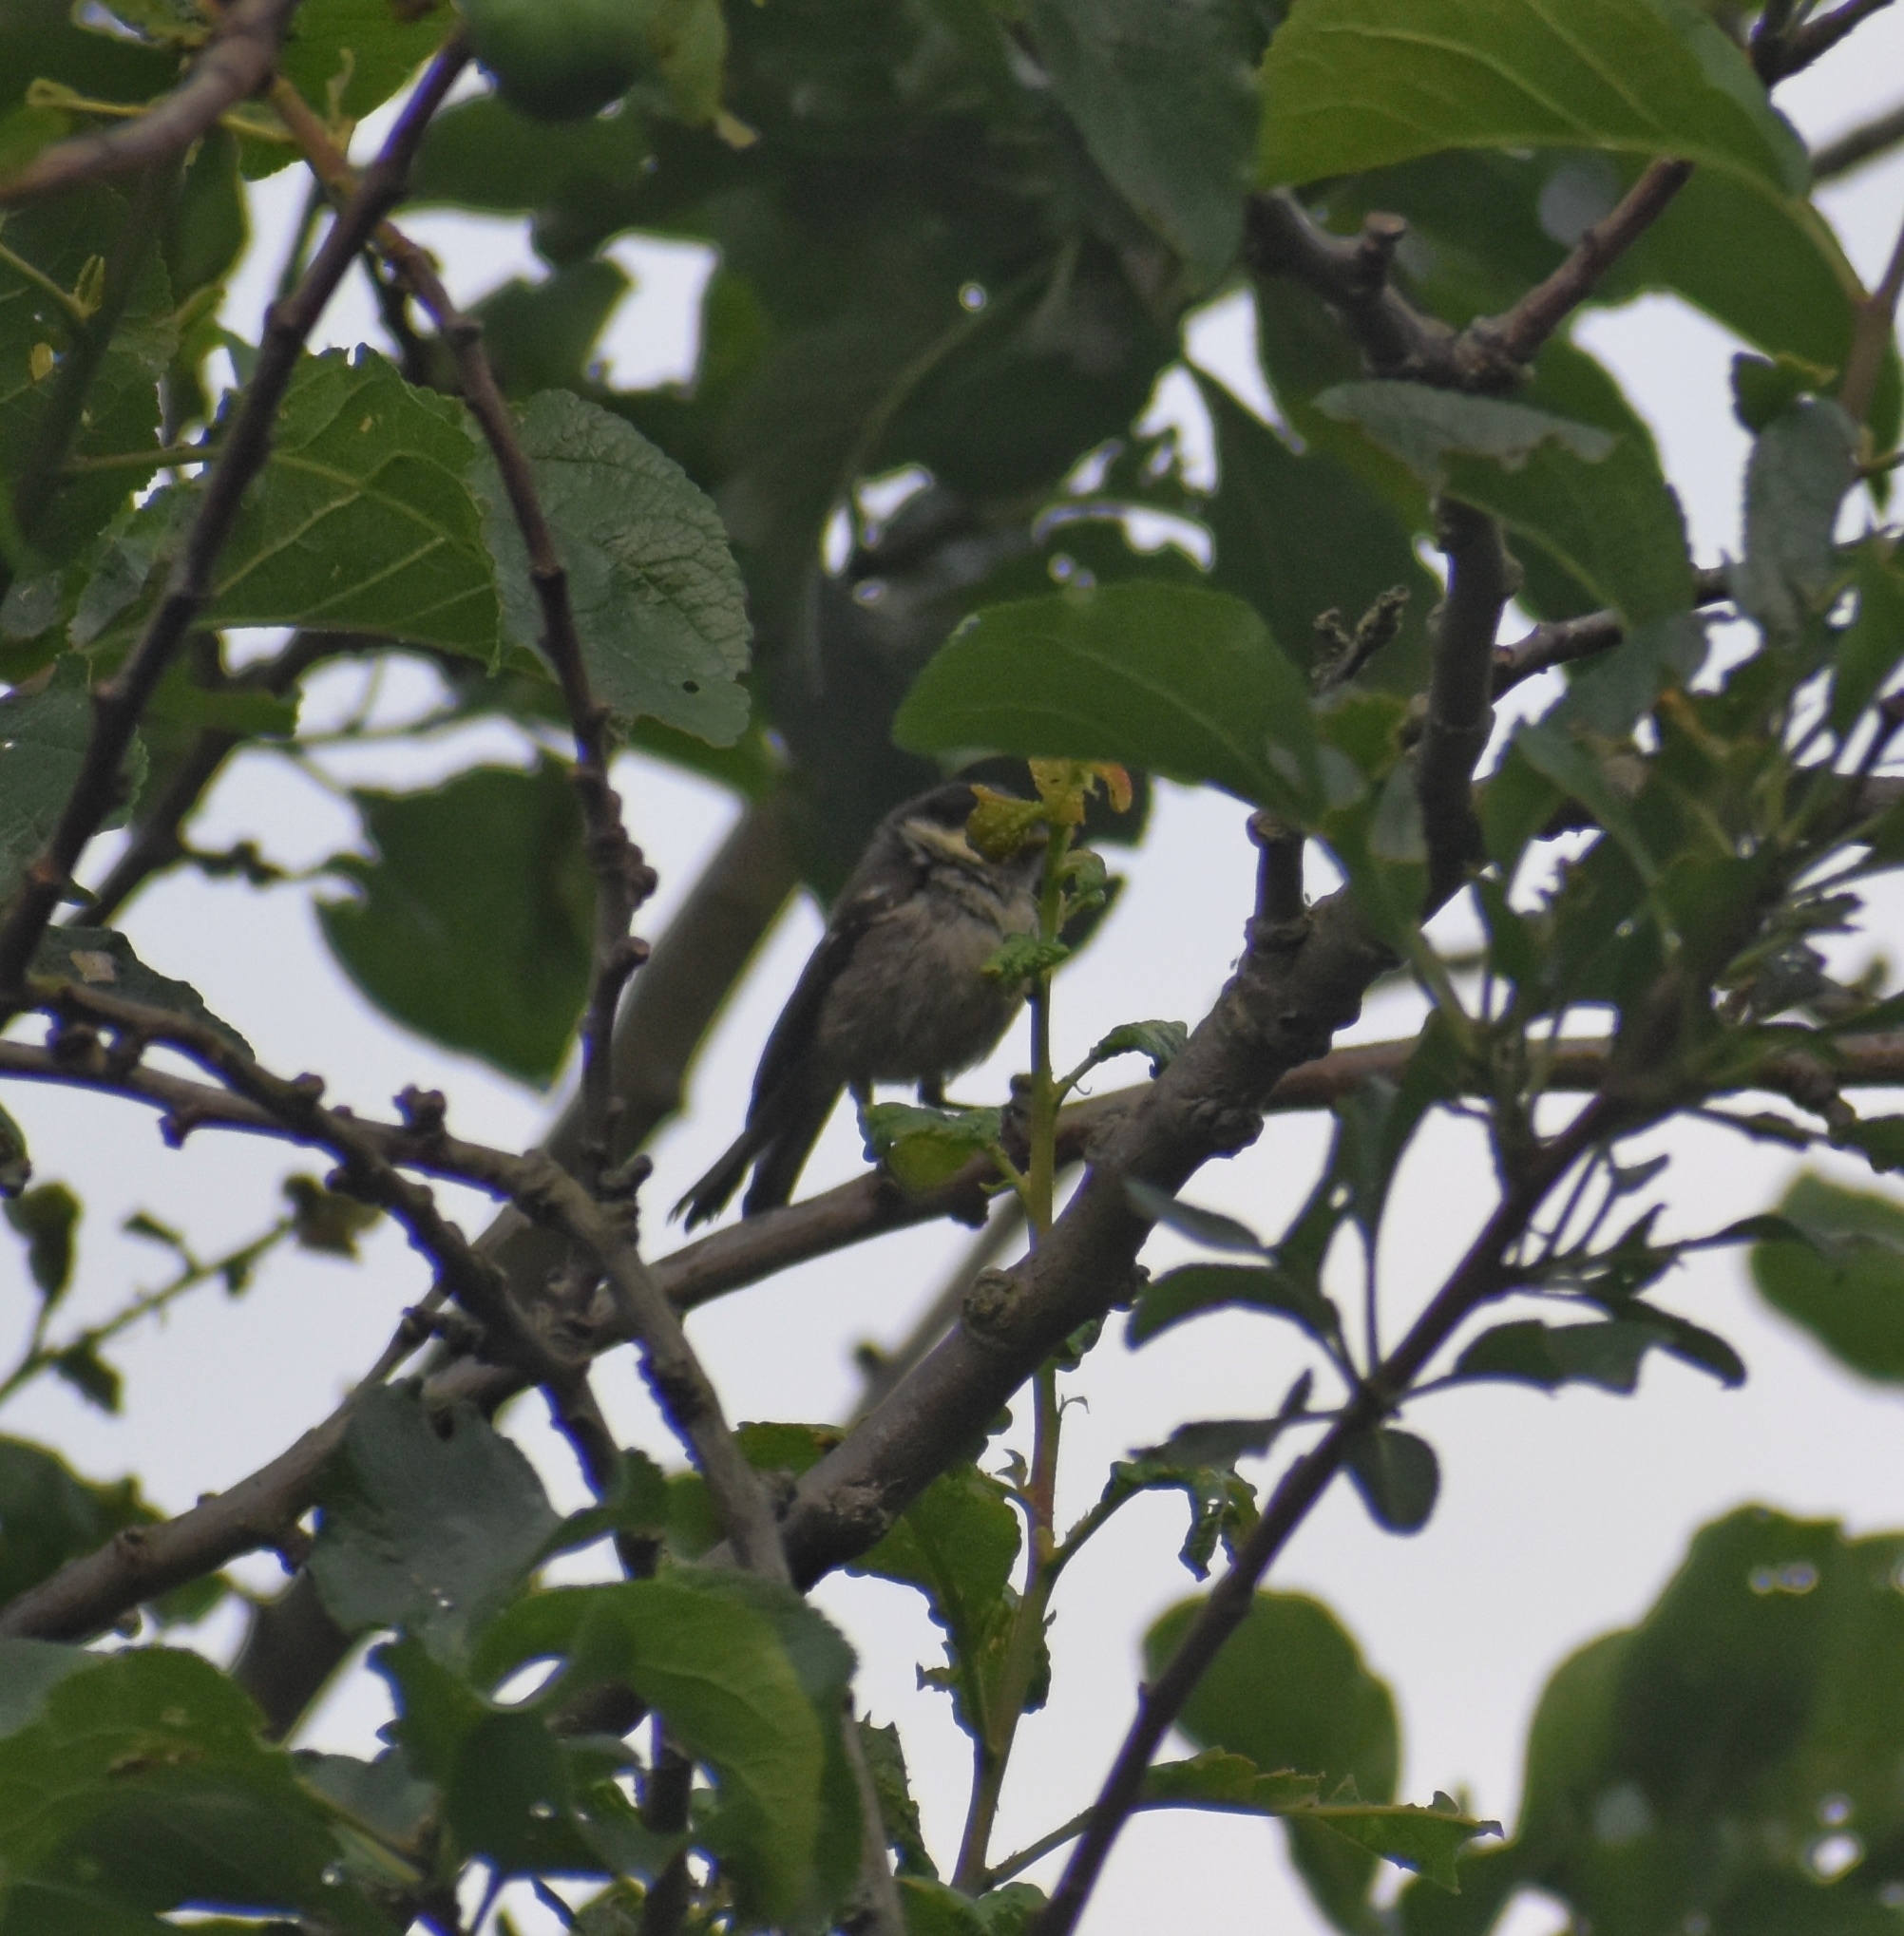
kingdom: Animalia
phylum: Chordata
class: Aves
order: Passeriformes
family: Paridae
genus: Parus
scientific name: Parus major
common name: Great tit
